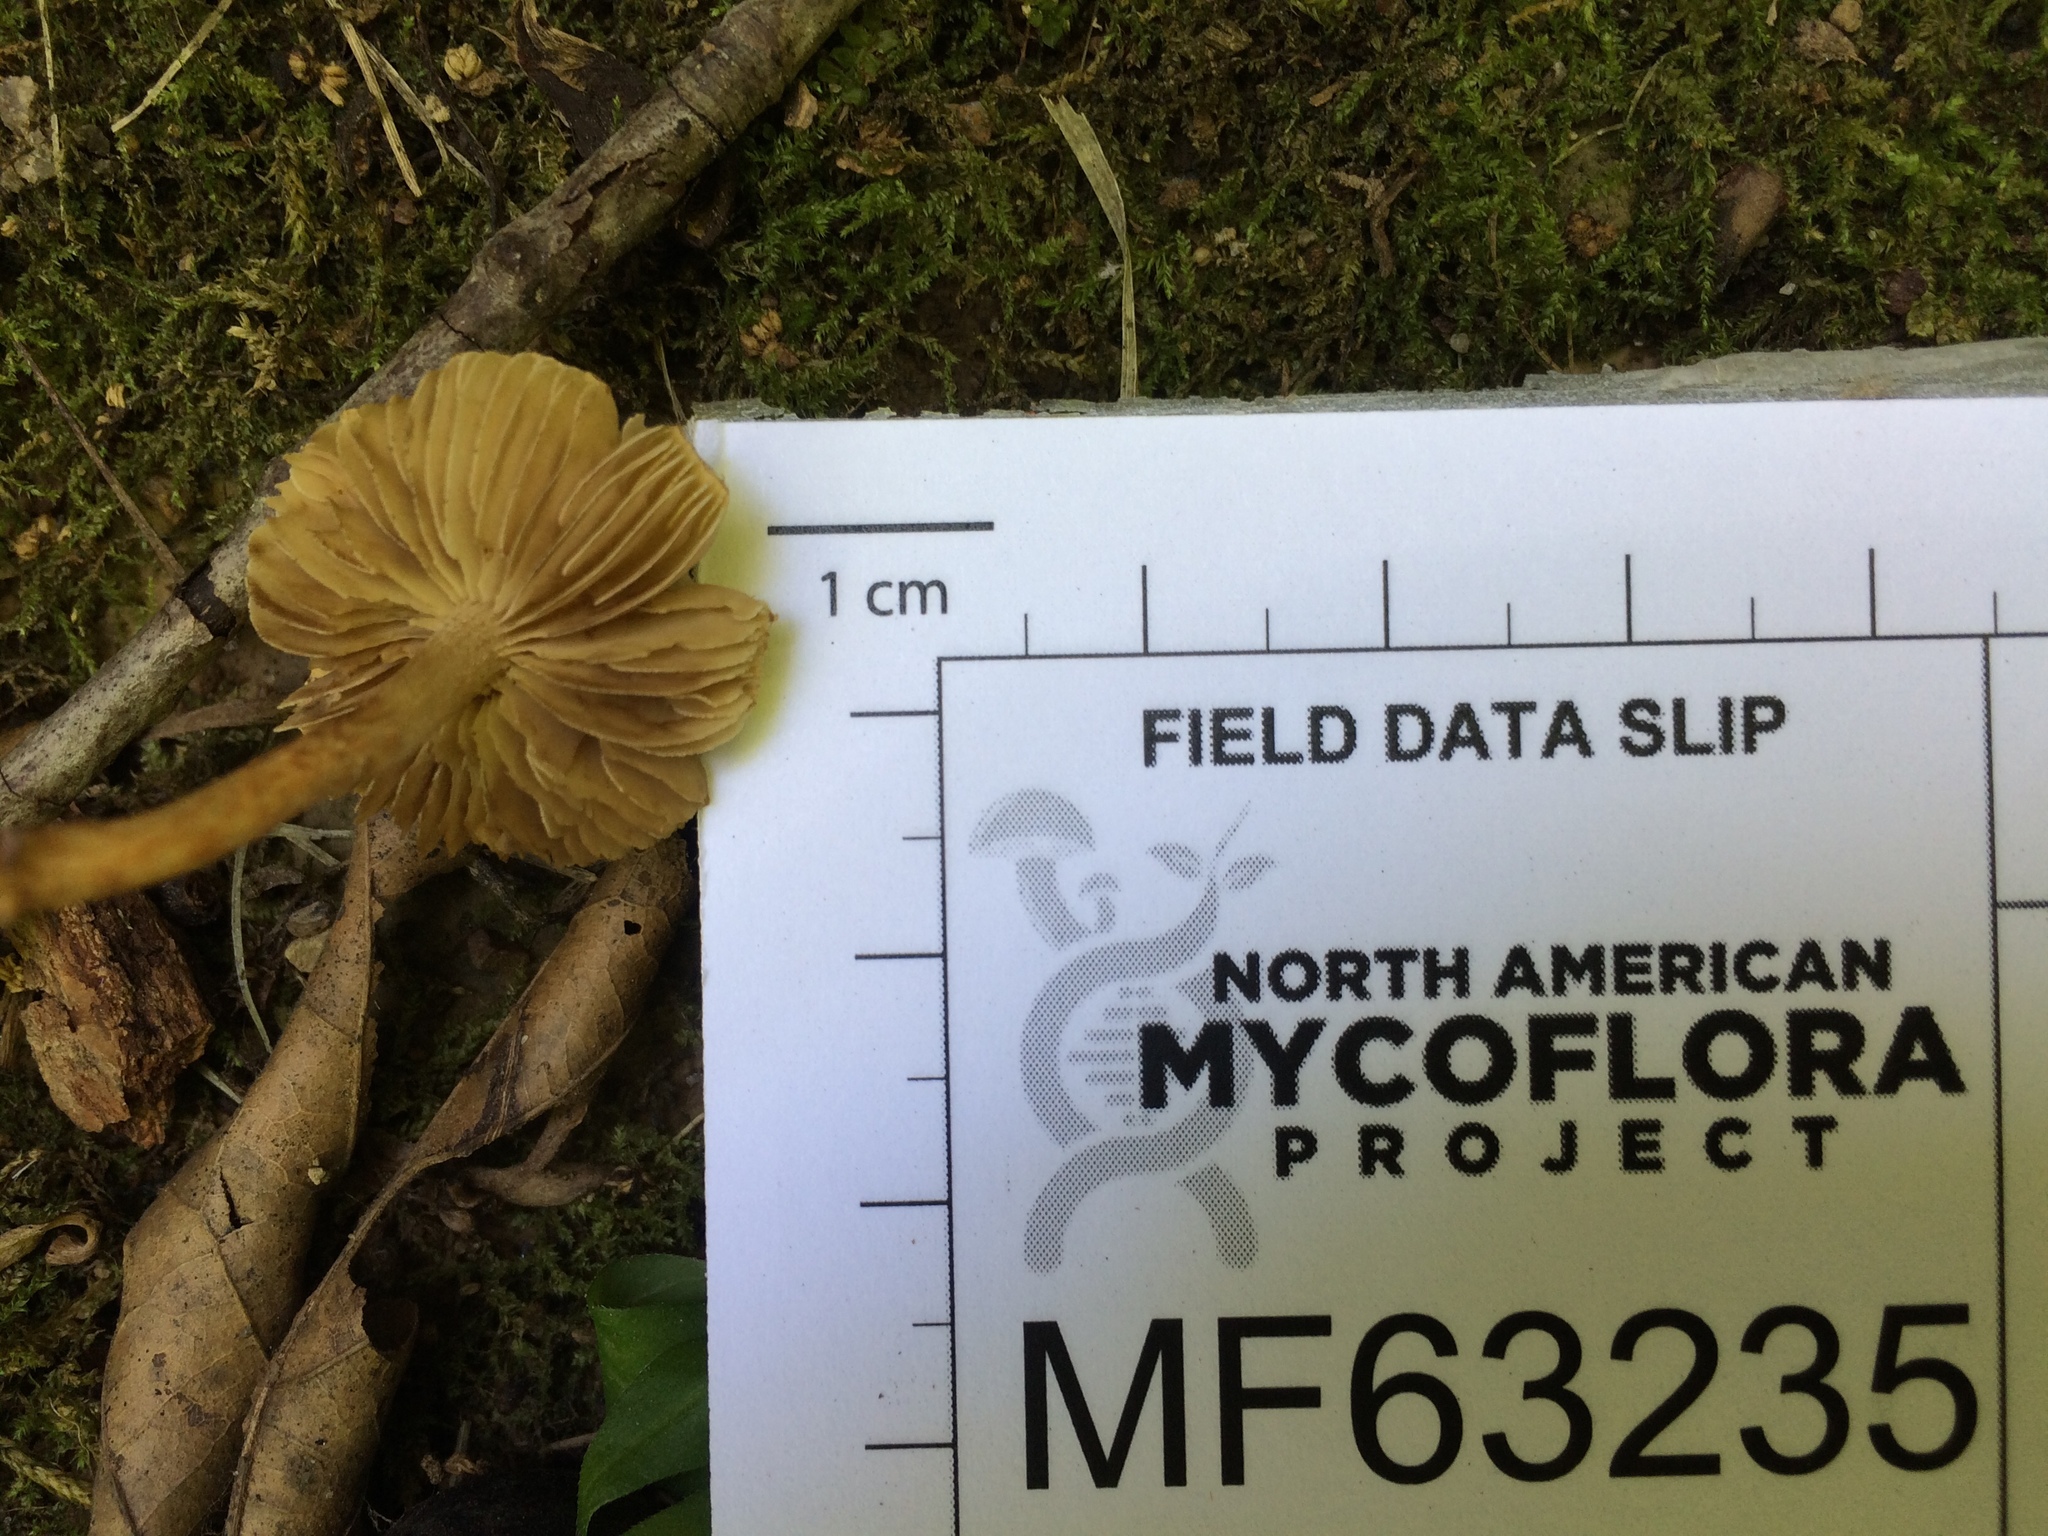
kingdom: Fungi
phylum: Basidiomycota
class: Agaricomycetes
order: Agaricales
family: Inocybaceae
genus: Mallocybe
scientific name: Mallocybe unicolor
